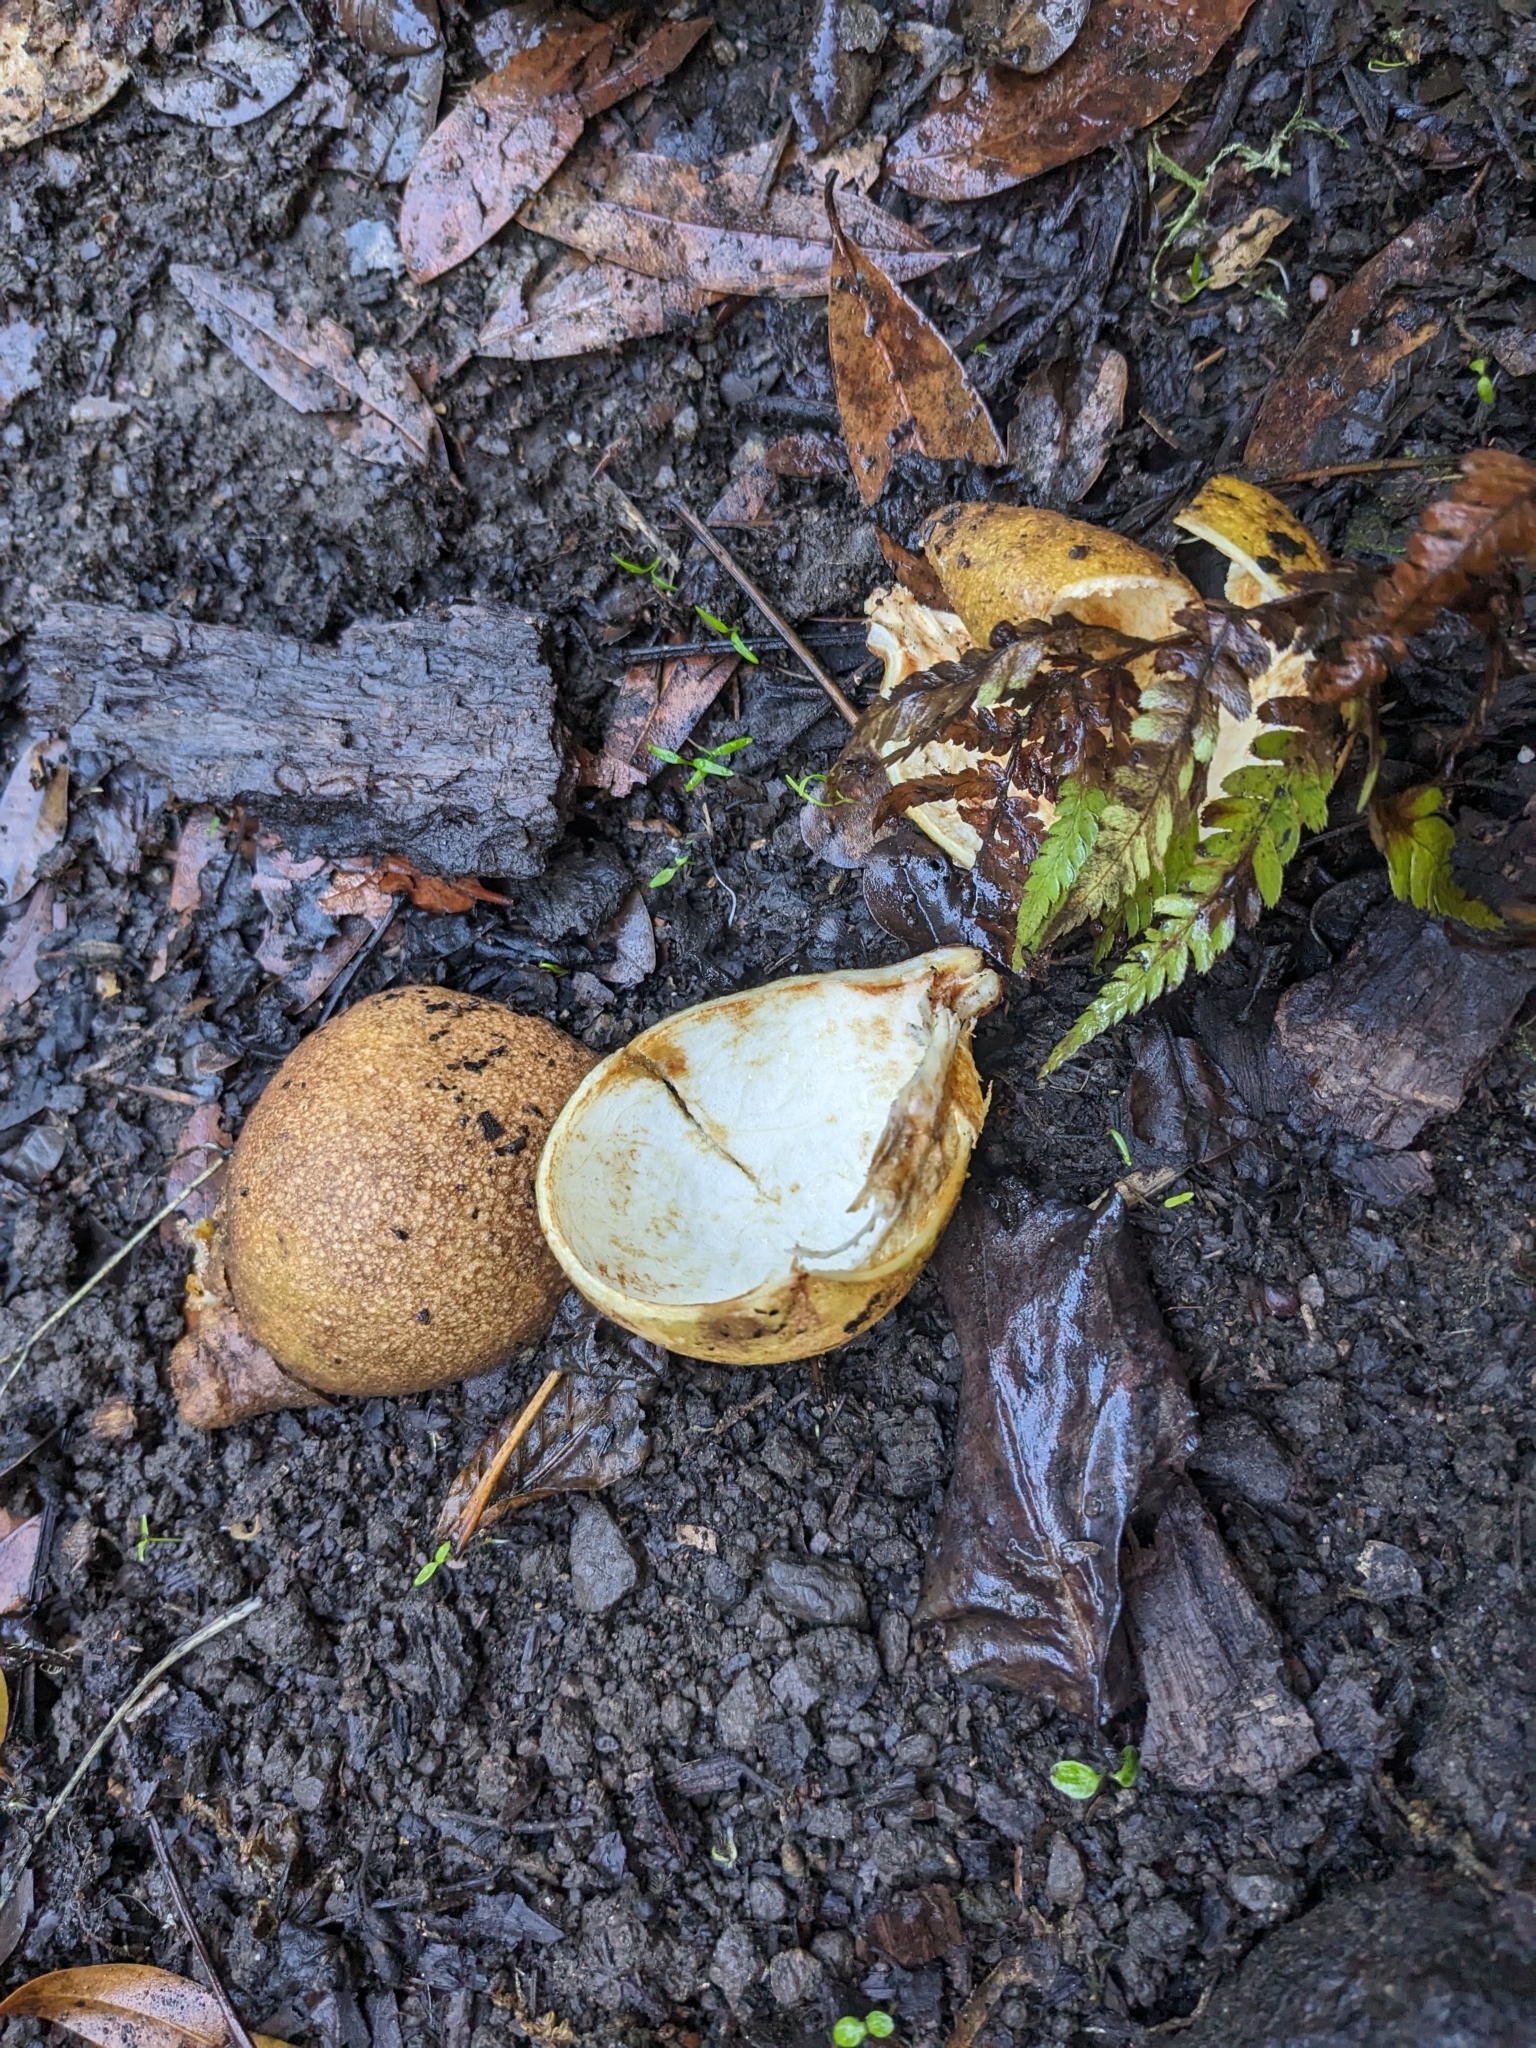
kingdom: Plantae
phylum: Tracheophyta
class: Magnoliopsida
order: Sapindales
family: Sapindaceae
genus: Aesculus
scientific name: Aesculus californica
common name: California buckeye
